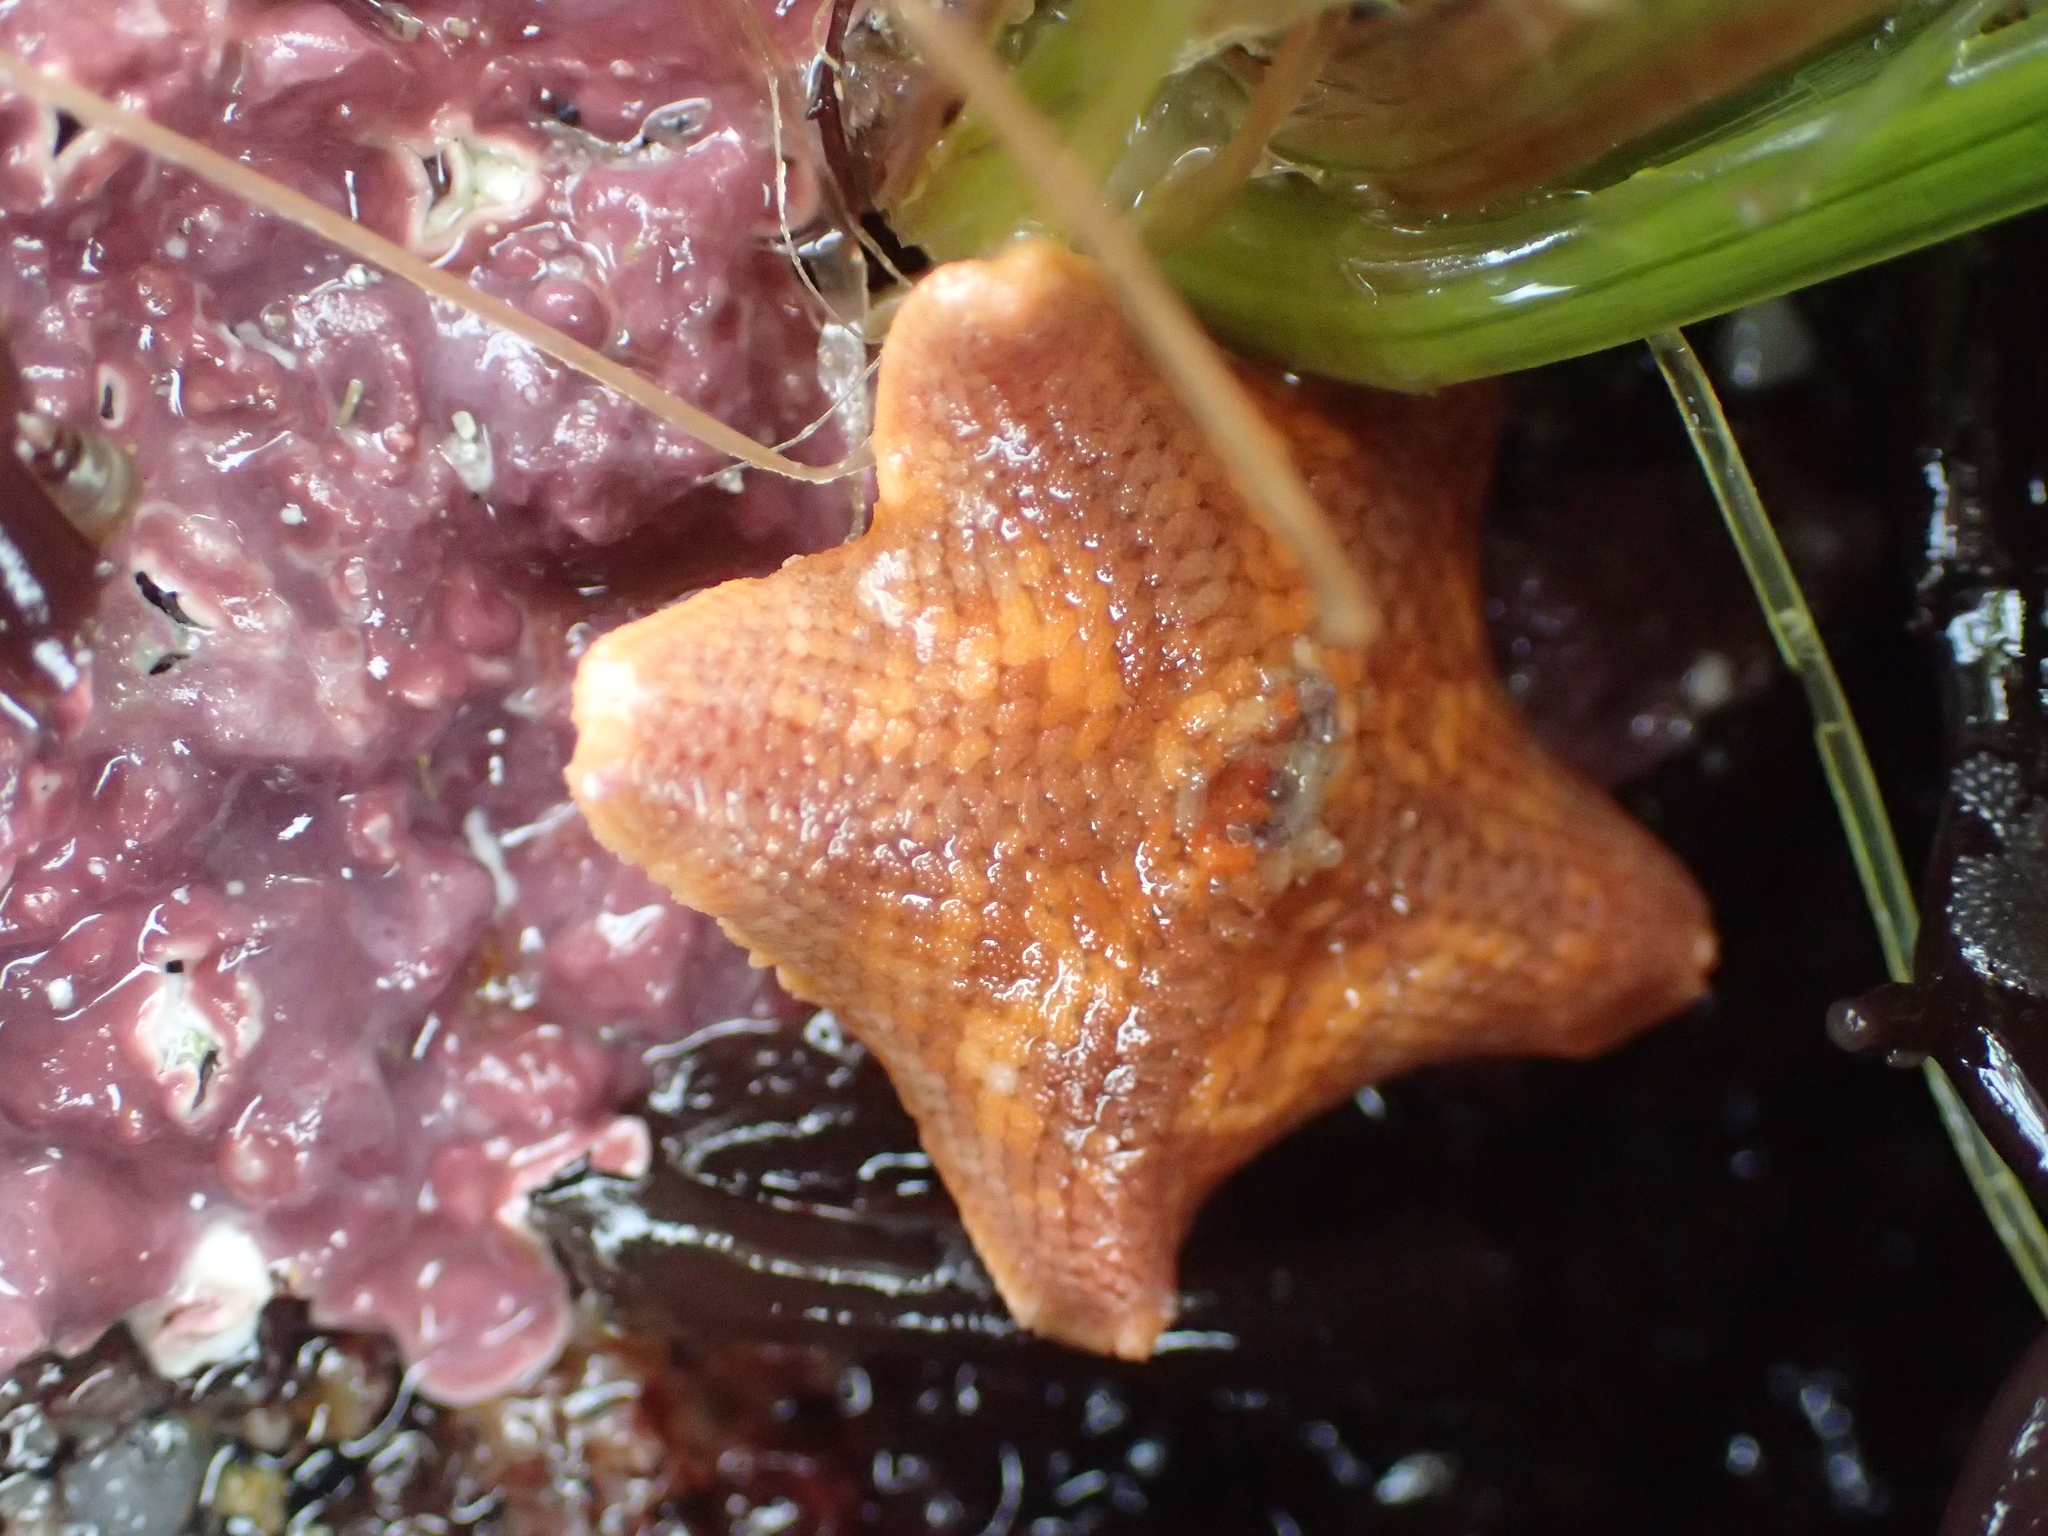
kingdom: Animalia
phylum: Echinodermata
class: Asteroidea
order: Valvatida
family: Asterinidae
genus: Patiria
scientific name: Patiria miniata
